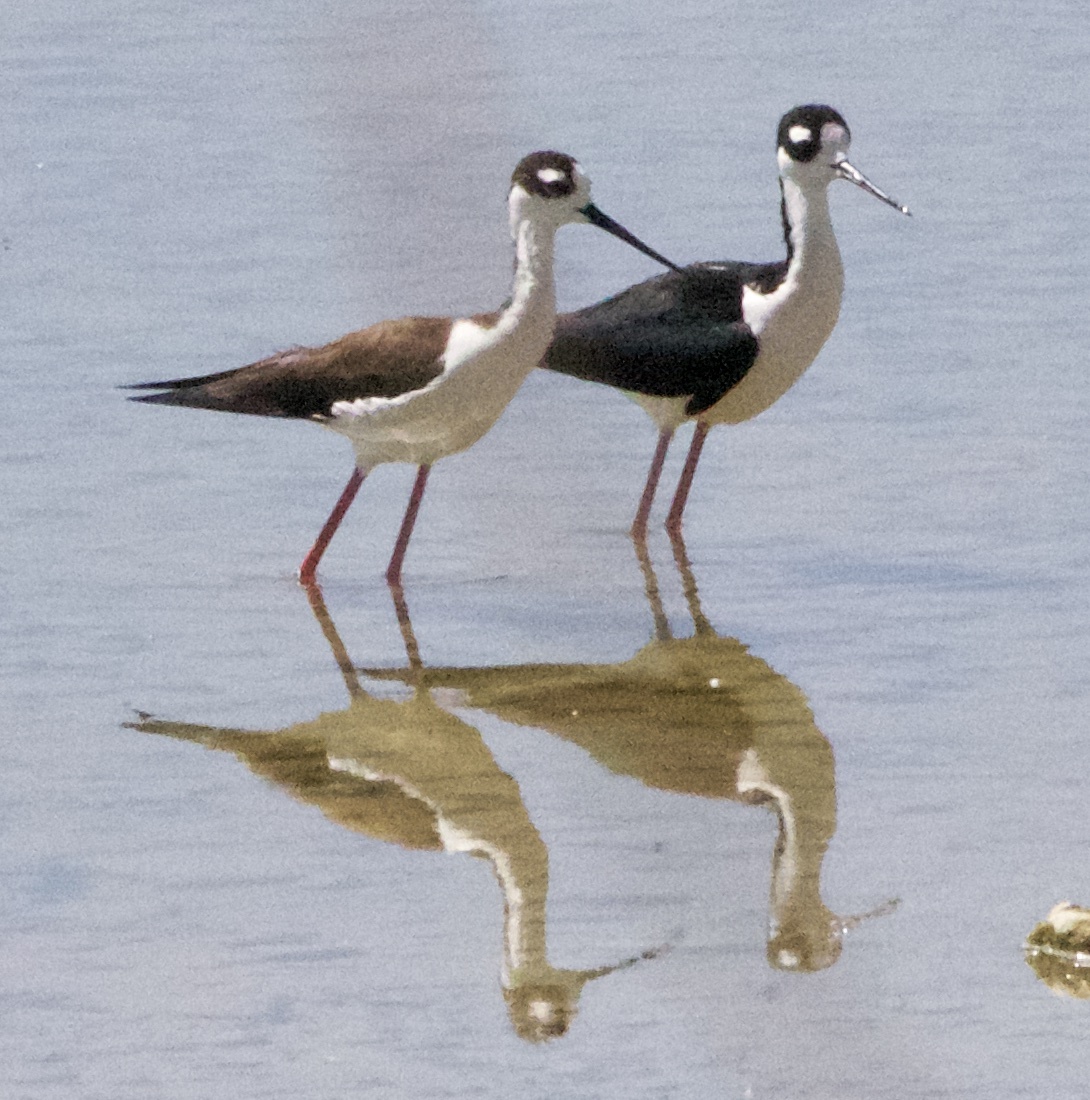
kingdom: Animalia
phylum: Chordata
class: Aves
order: Charadriiformes
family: Recurvirostridae
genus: Himantopus
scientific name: Himantopus mexicanus
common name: Black-necked stilt
